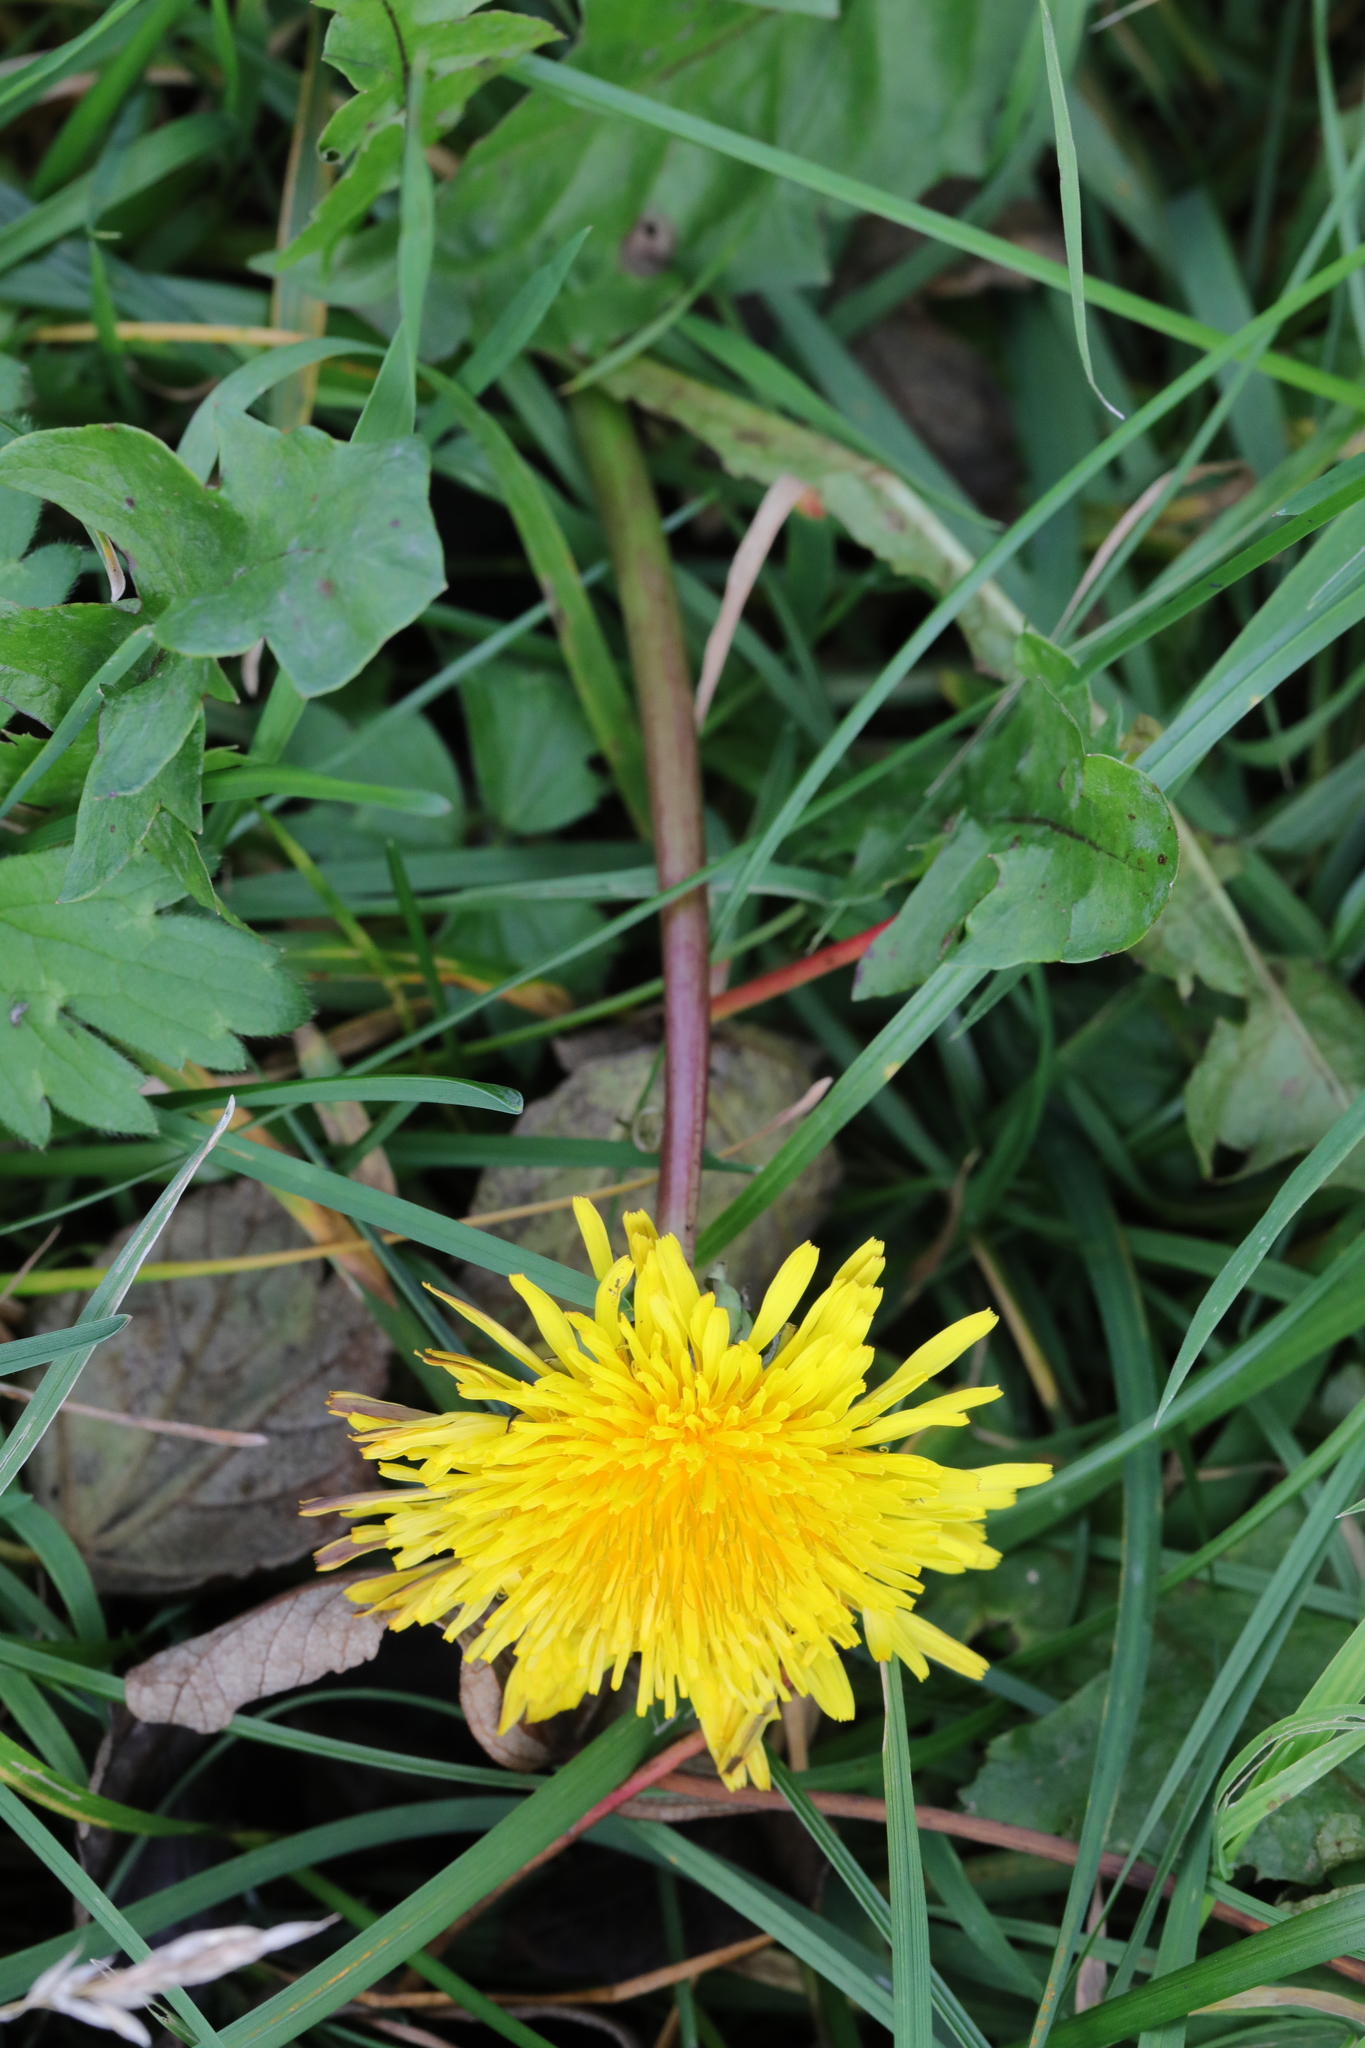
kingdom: Plantae
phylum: Tracheophyta
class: Magnoliopsida
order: Asterales
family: Asteraceae
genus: Taraxacum
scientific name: Taraxacum officinale
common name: Common dandelion
